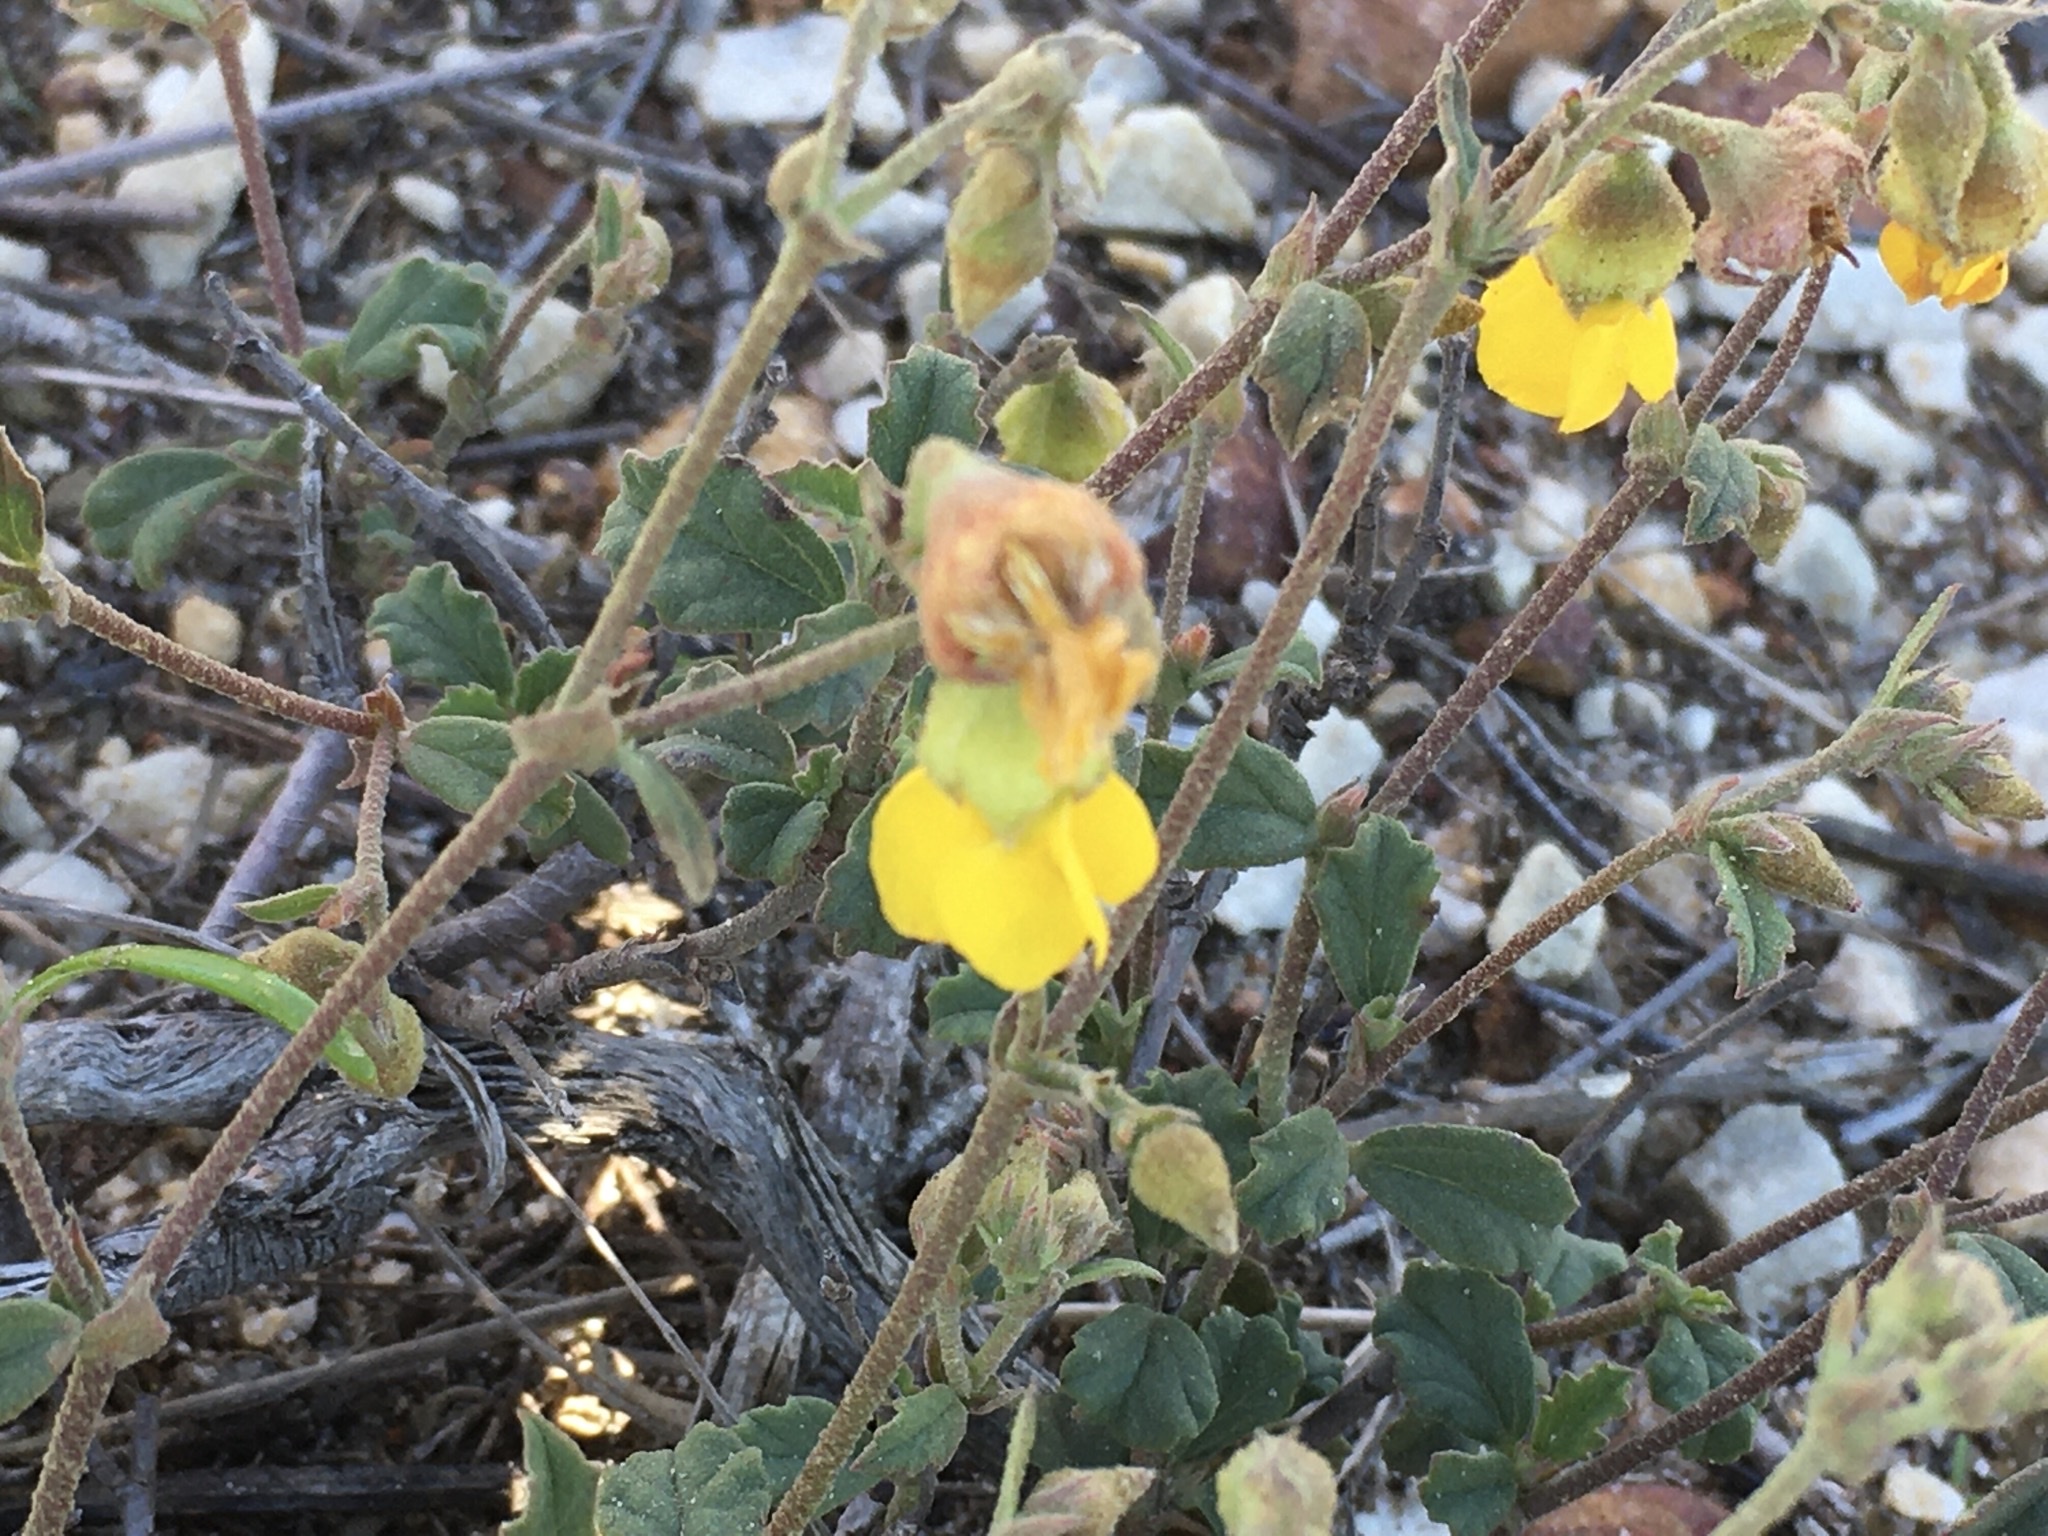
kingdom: Plantae
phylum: Tracheophyta
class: Magnoliopsida
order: Malvales
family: Malvaceae
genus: Hermannia
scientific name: Hermannia multiflora
